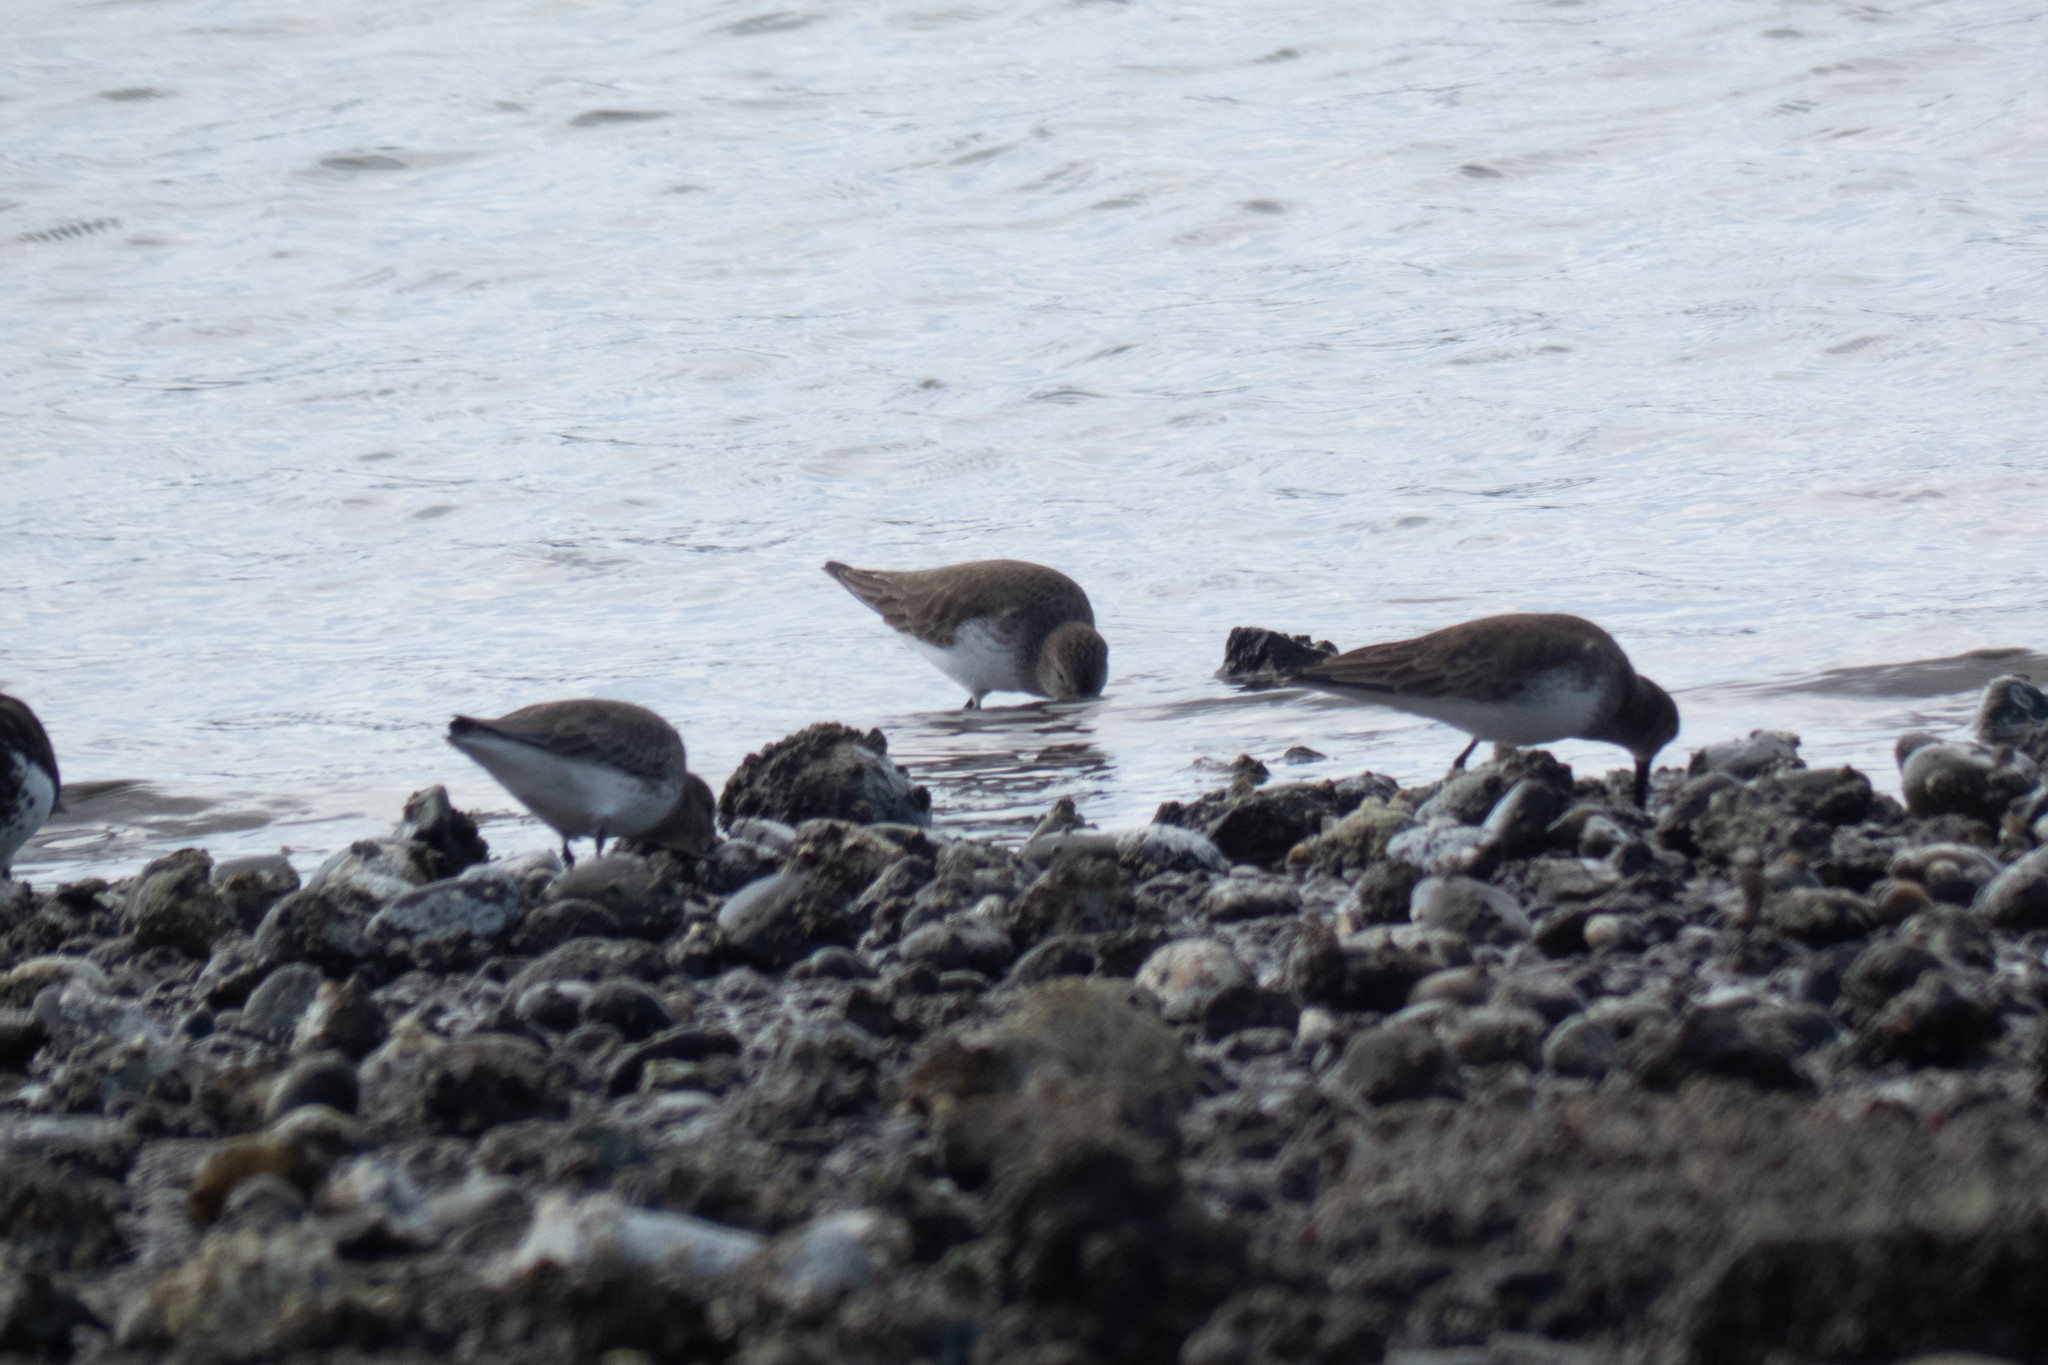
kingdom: Animalia
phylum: Chordata
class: Aves
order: Charadriiformes
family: Scolopacidae
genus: Calidris
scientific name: Calidris alpina
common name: Dunlin
